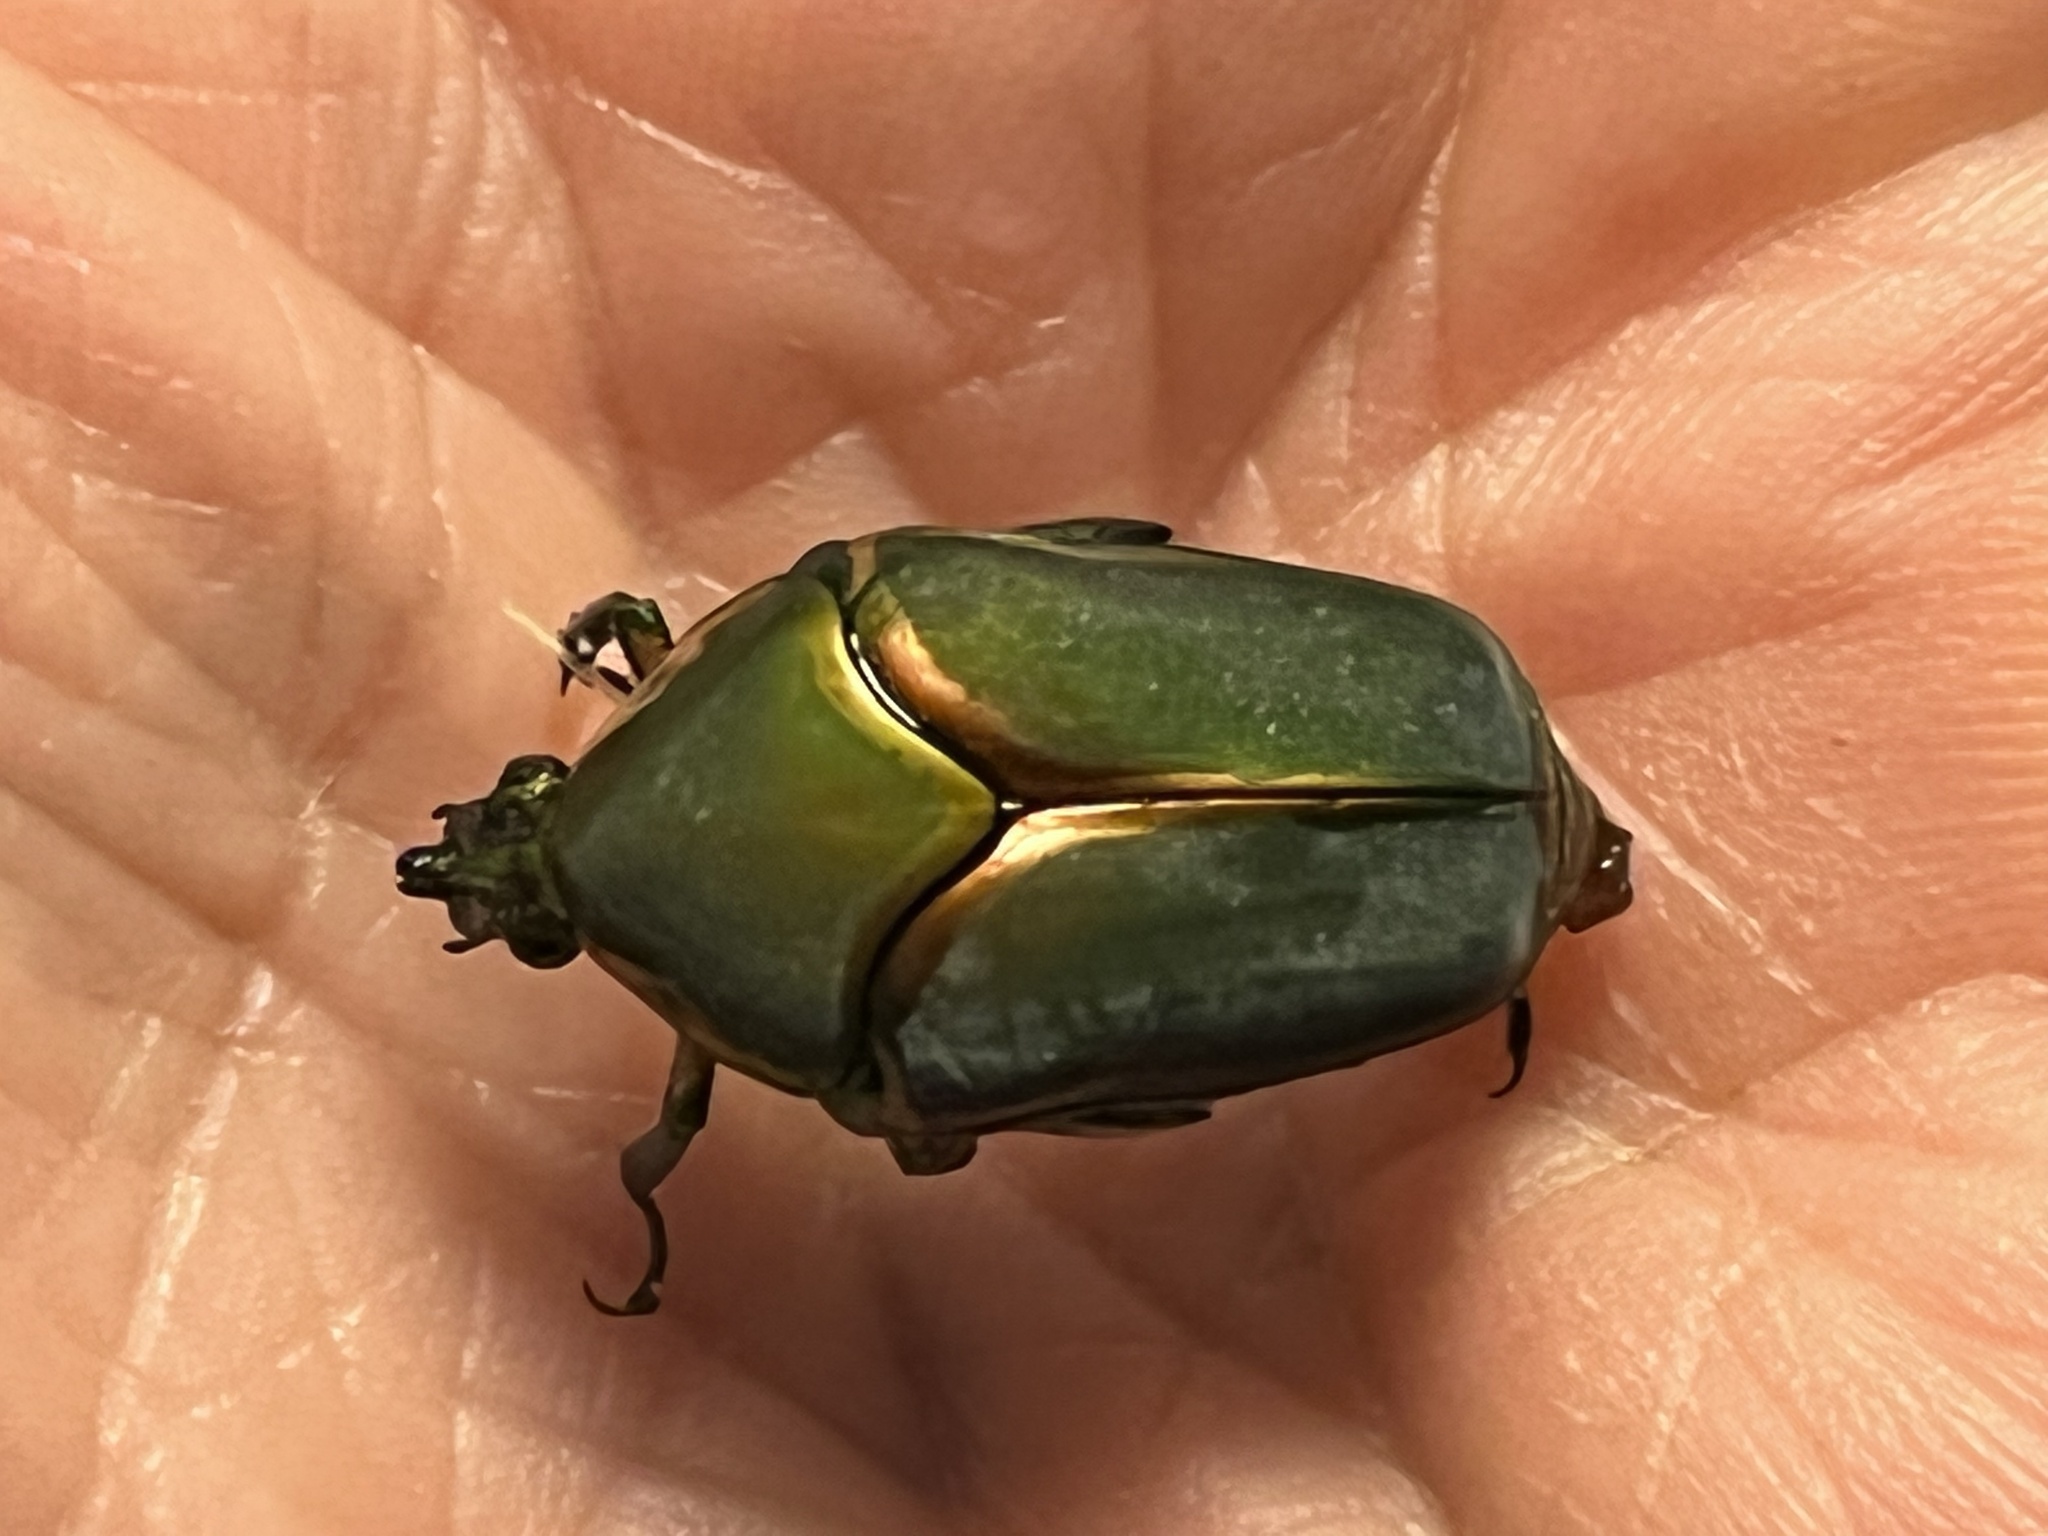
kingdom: Animalia
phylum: Arthropoda
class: Insecta
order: Coleoptera
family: Scarabaeidae
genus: Cotinis
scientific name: Cotinis nitida
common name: Common green june beetle
